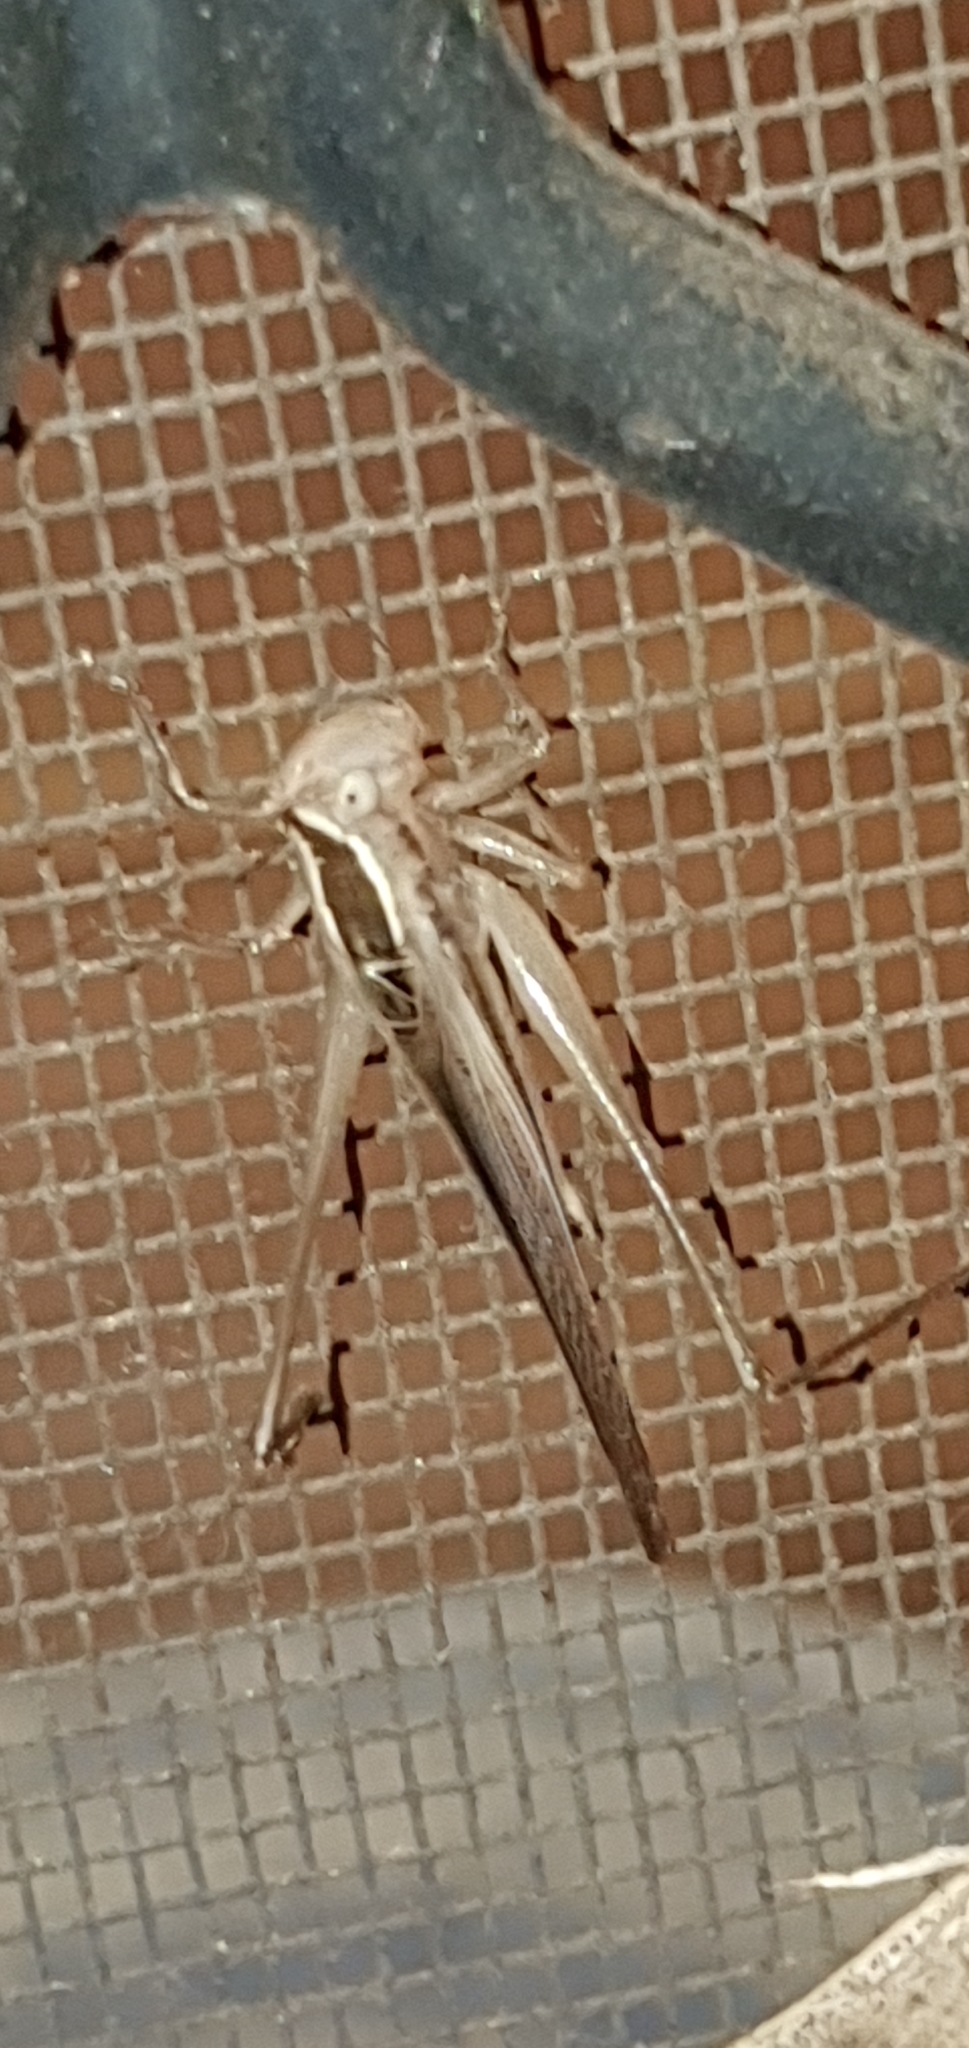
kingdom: Animalia
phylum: Arthropoda
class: Insecta
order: Orthoptera
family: Tettigoniidae
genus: Conocephalus
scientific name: Conocephalus upoluensis
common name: Upolu meadow katydid
